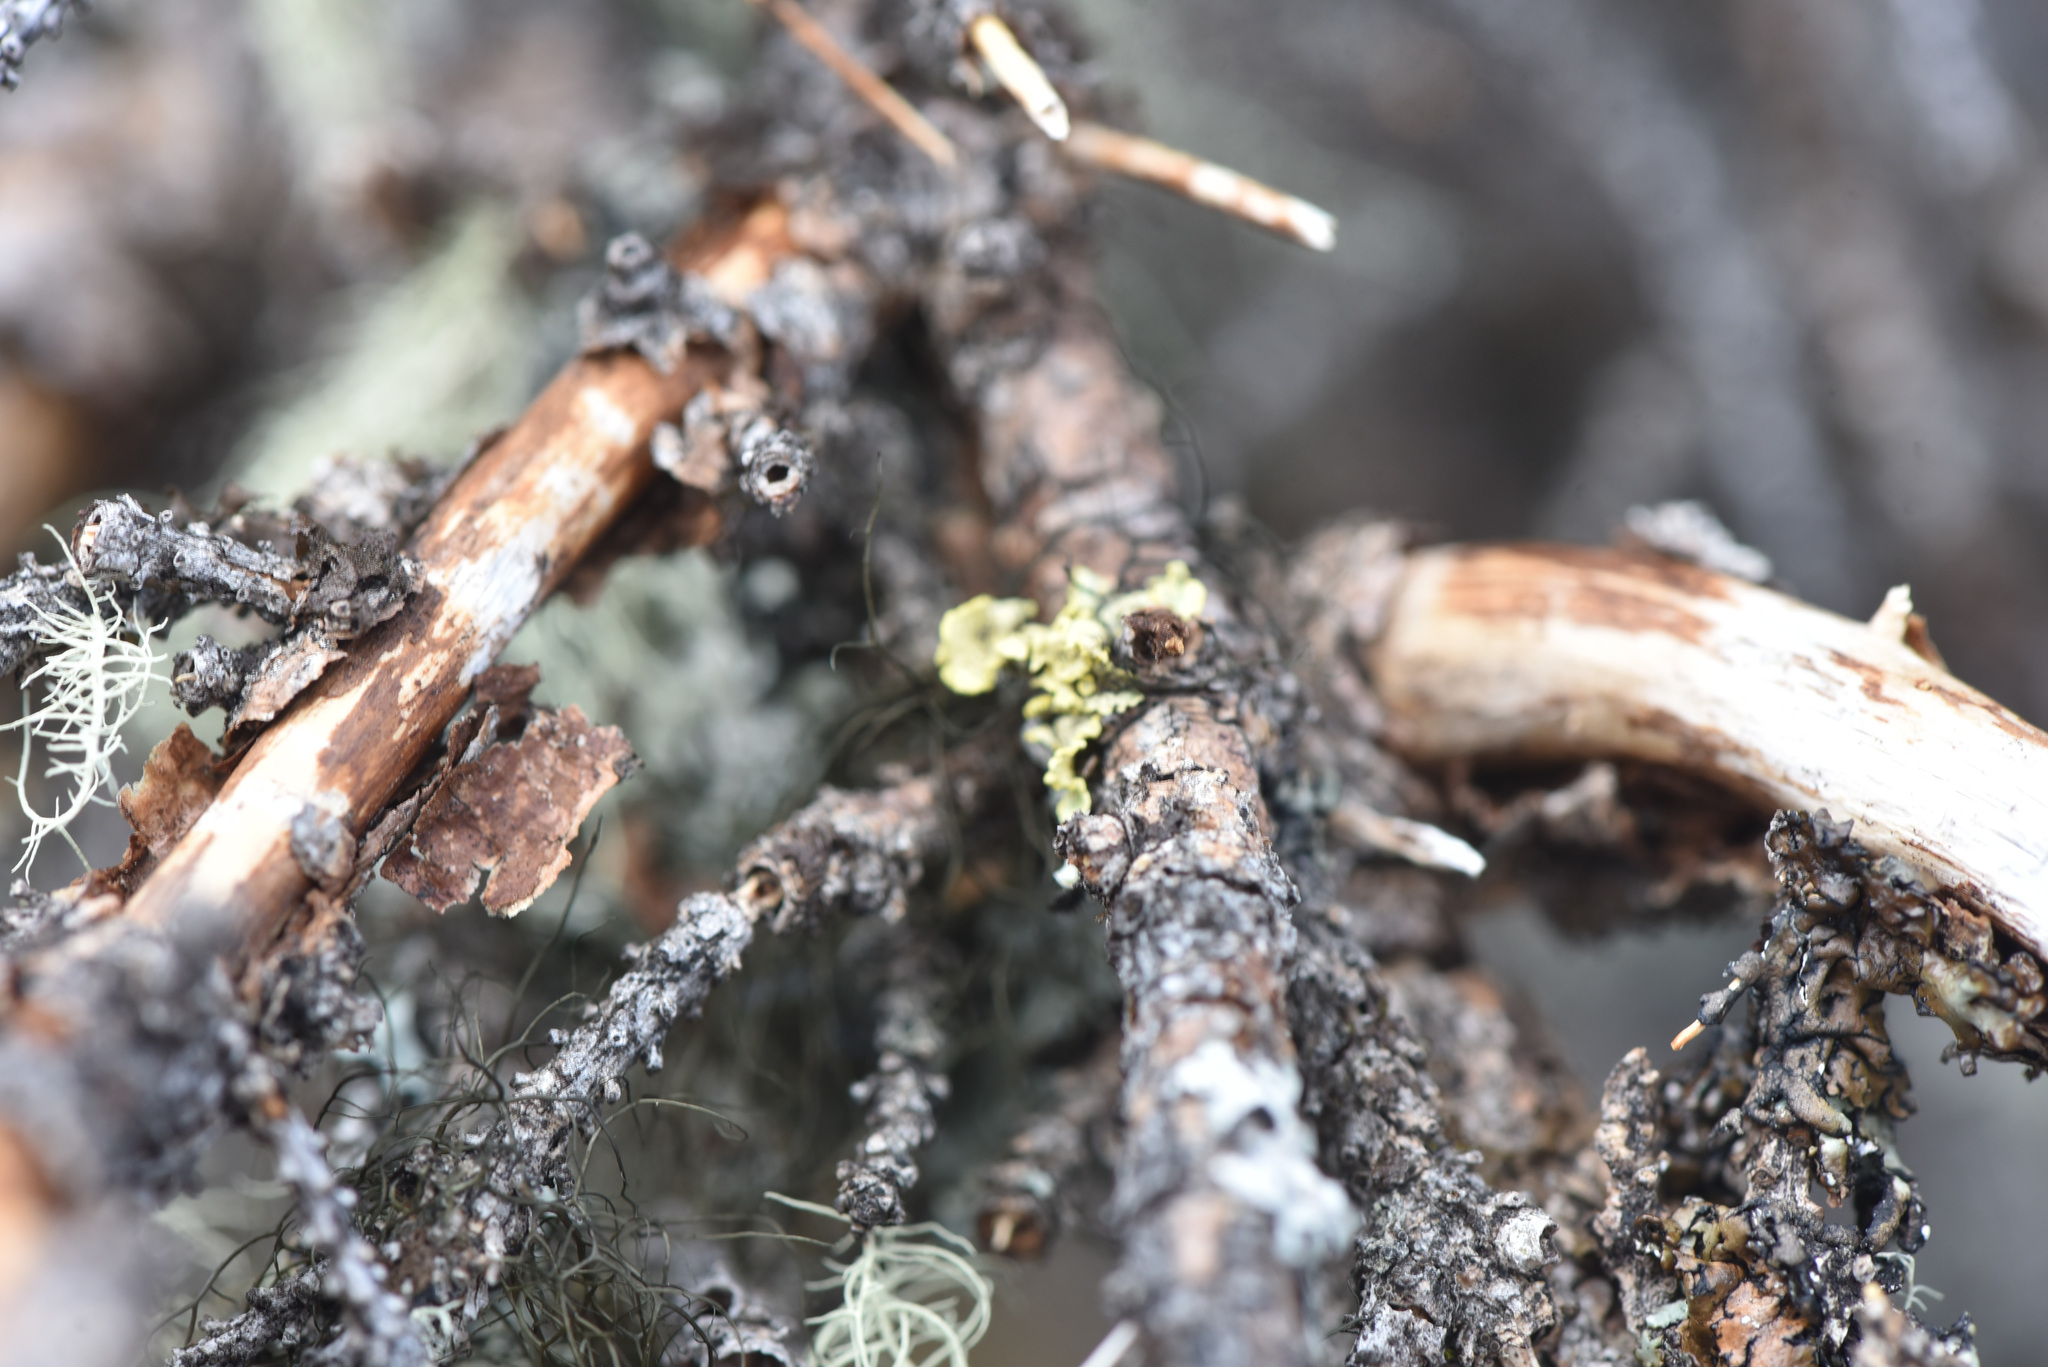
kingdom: Fungi
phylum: Ascomycota
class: Lecanoromycetes
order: Lecanorales
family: Parmeliaceae
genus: Vulpicida
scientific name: Vulpicida pinastri
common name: Powdered sunshine lichen
